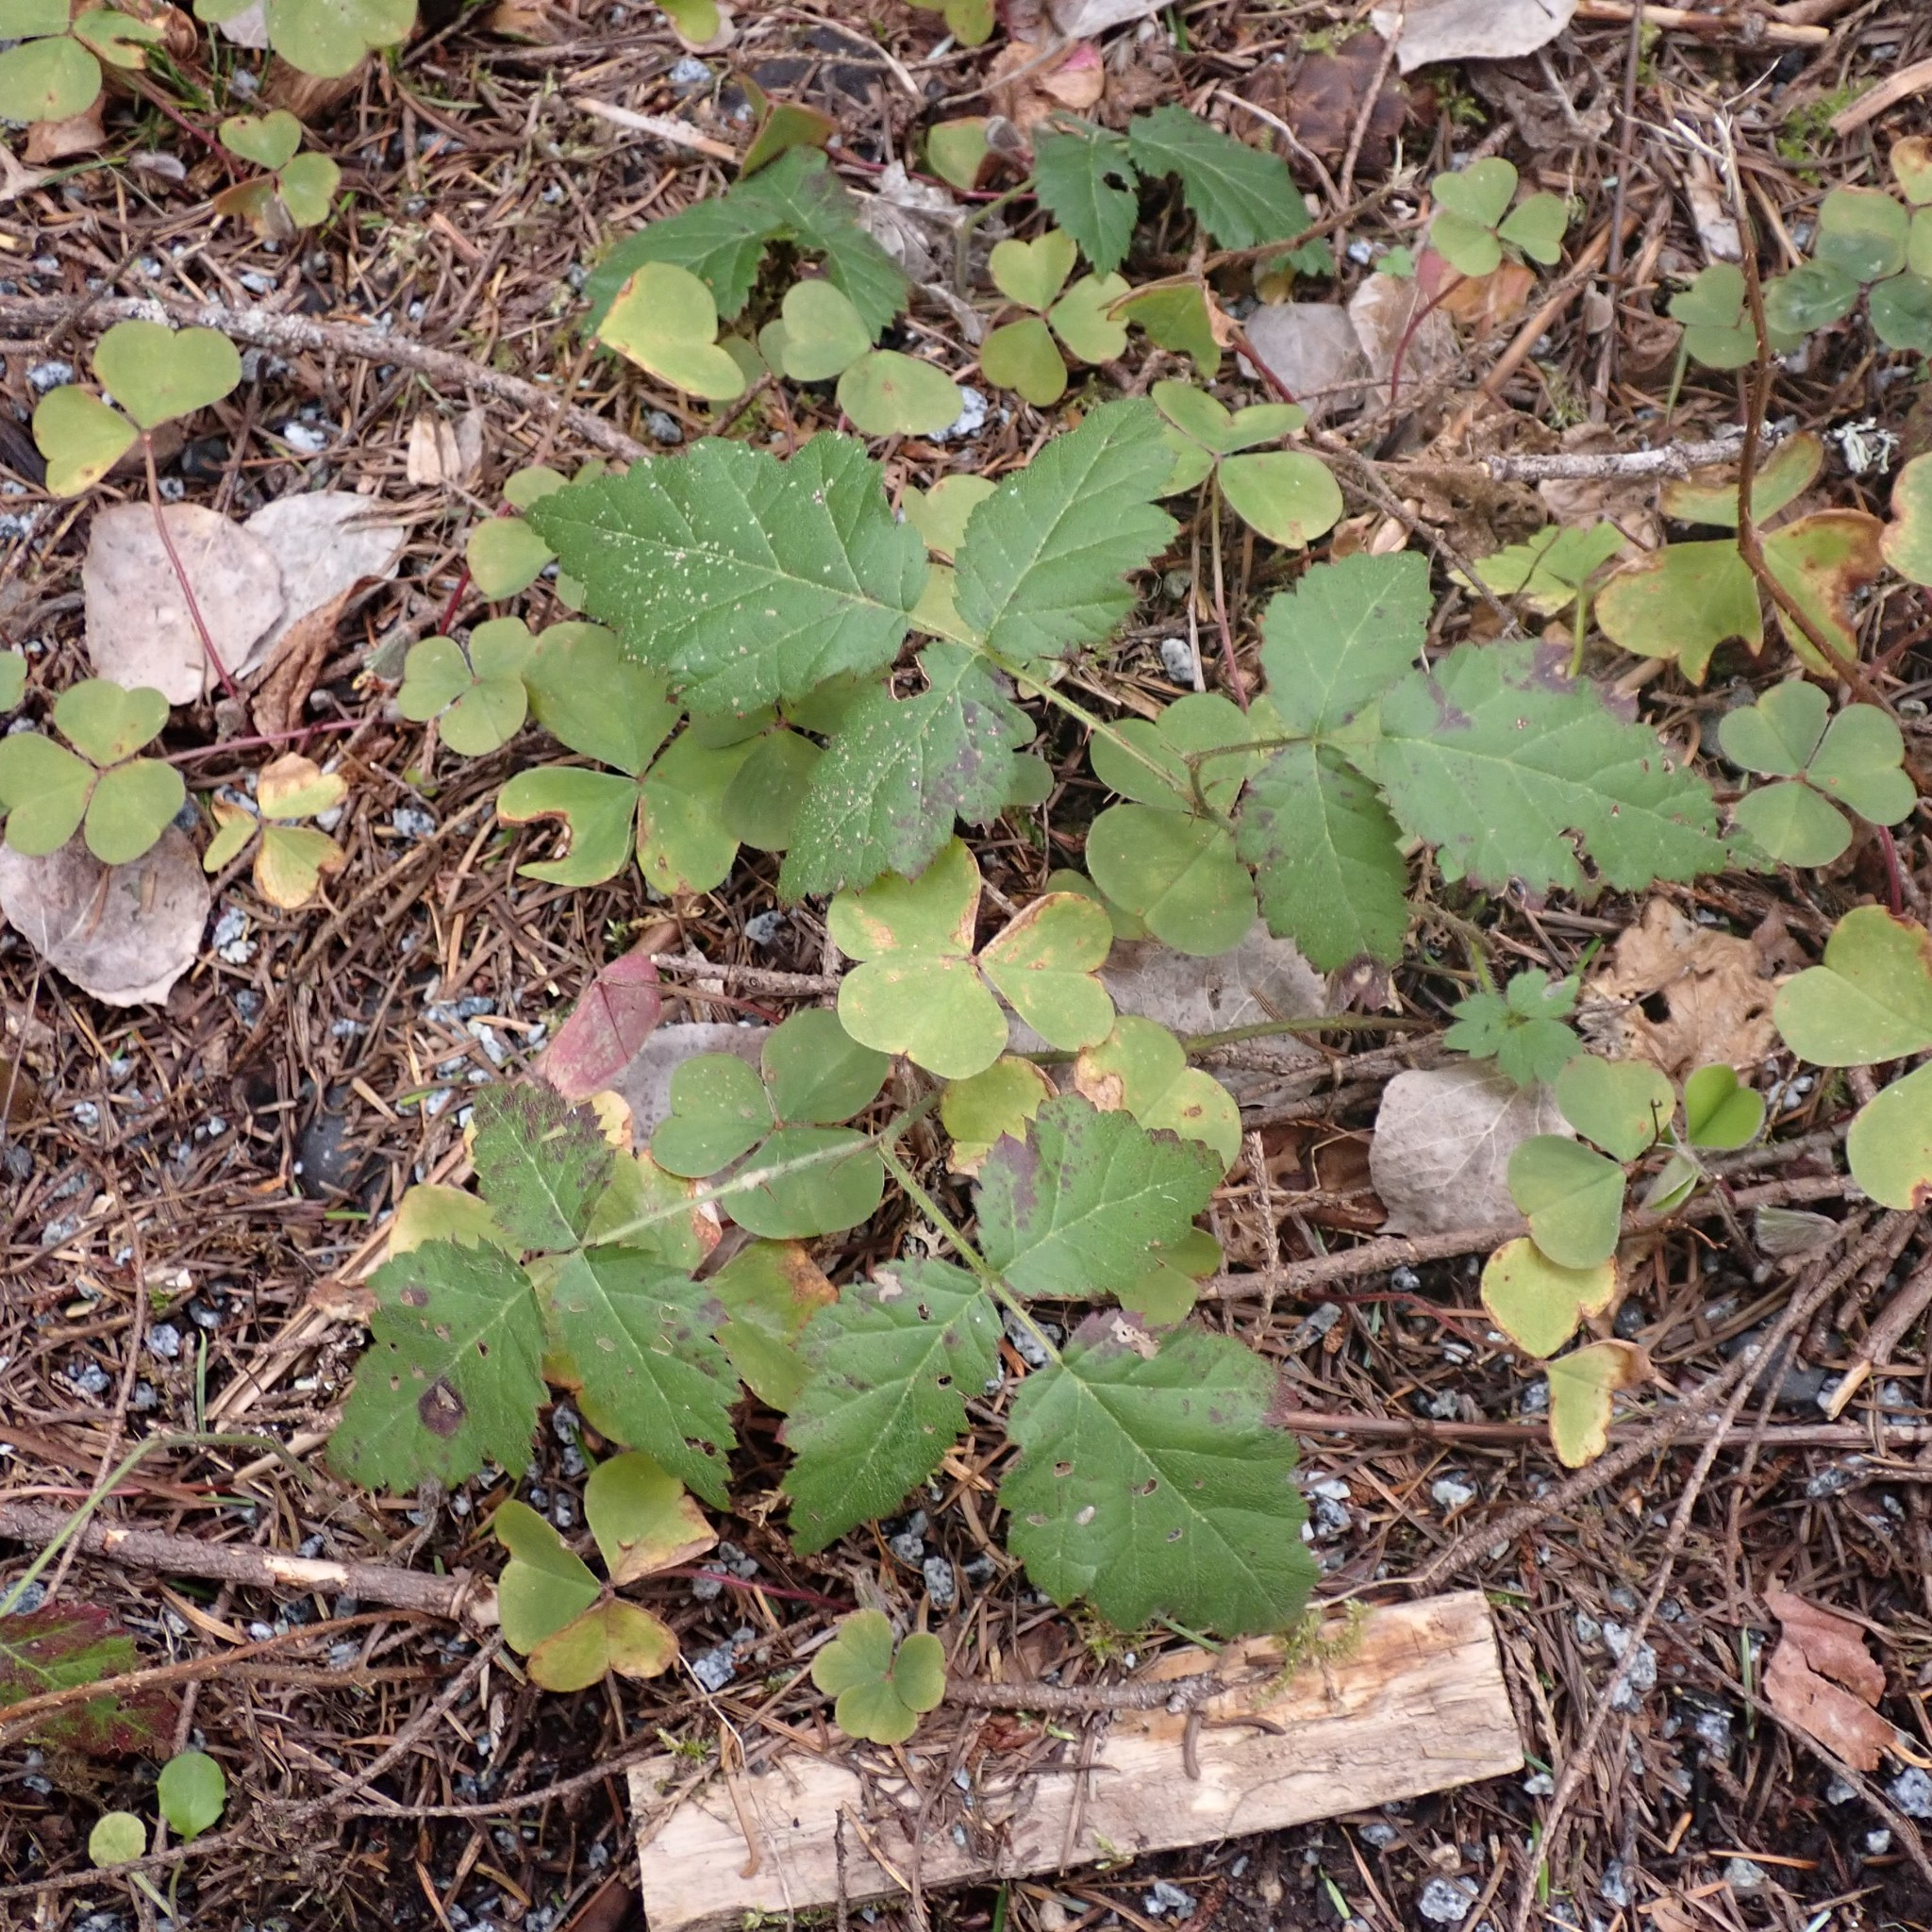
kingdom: Plantae
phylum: Tracheophyta
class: Magnoliopsida
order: Rosales
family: Rosaceae
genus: Rubus
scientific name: Rubus ursinus
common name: Pacific blackberry
